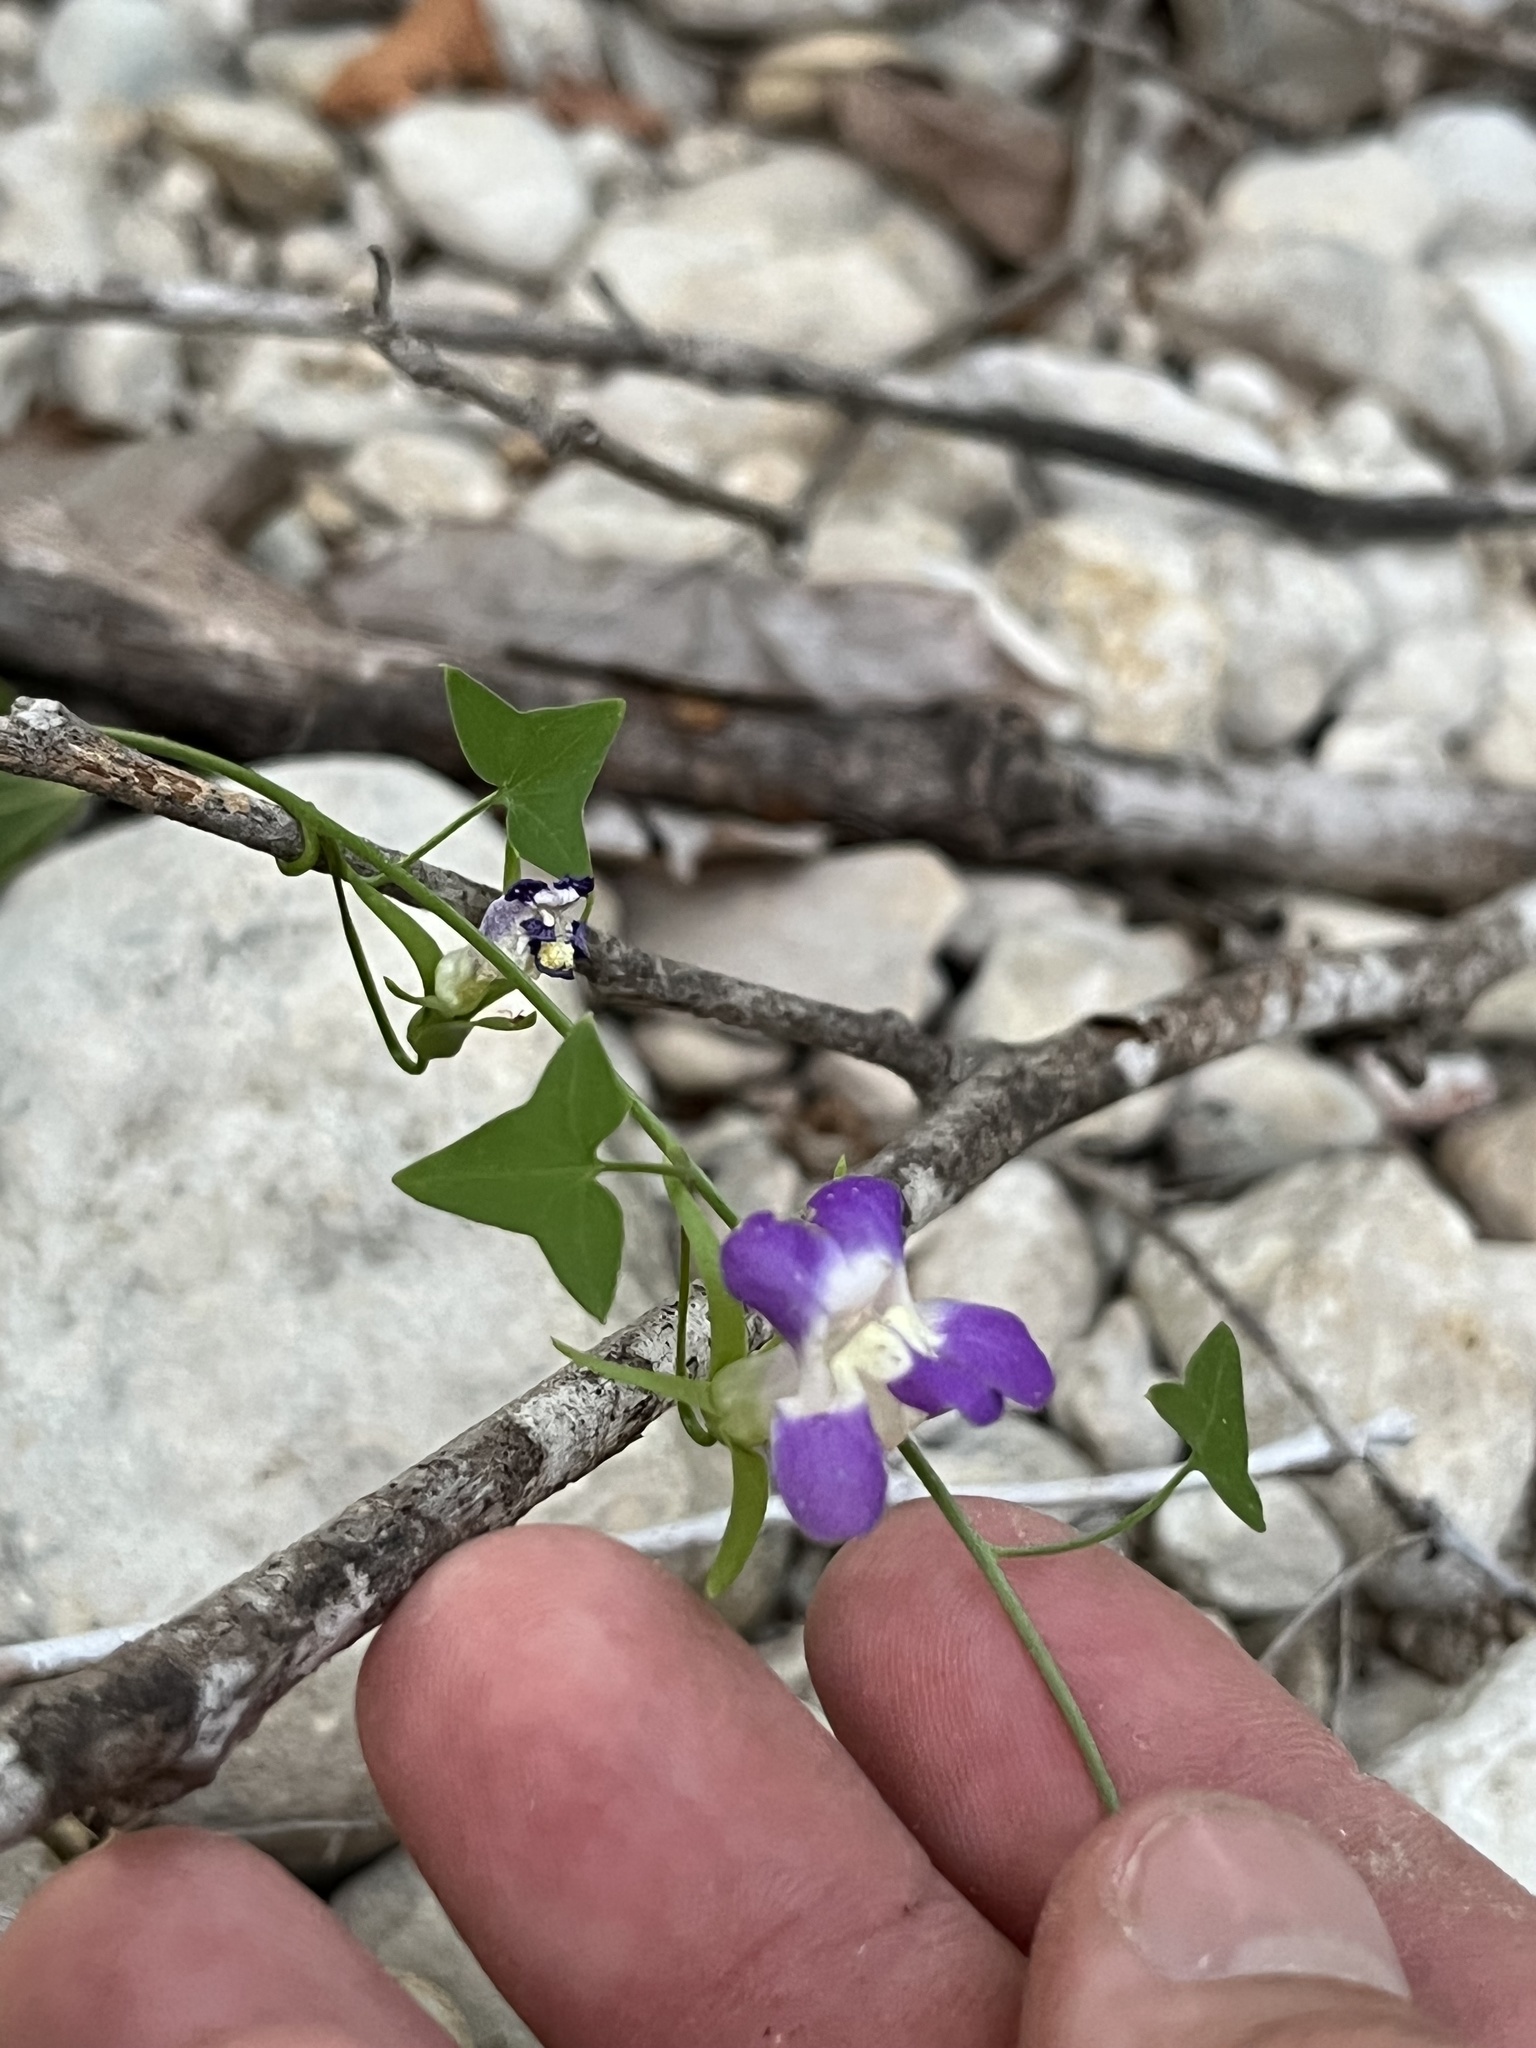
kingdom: Plantae
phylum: Tracheophyta
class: Magnoliopsida
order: Lamiales
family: Plantaginaceae
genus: Maurandella
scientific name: Maurandella antirrhiniflora
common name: Violet twining-snapdragon
